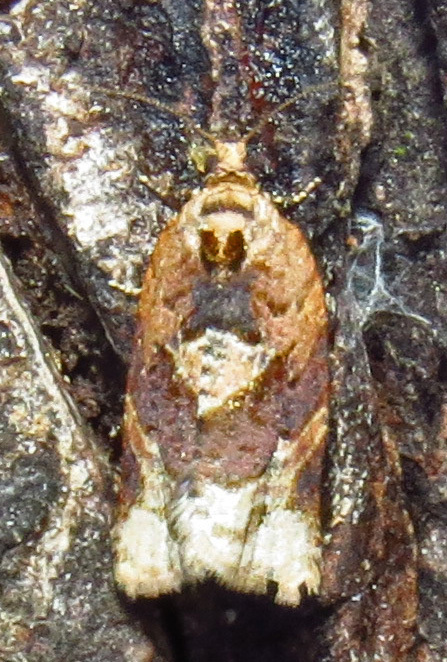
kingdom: Animalia
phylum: Arthropoda
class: Insecta
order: Lepidoptera
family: Tortricidae
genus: Argyrotaenia
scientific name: Argyrotaenia velutinana
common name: Red-banded leafroller moth
